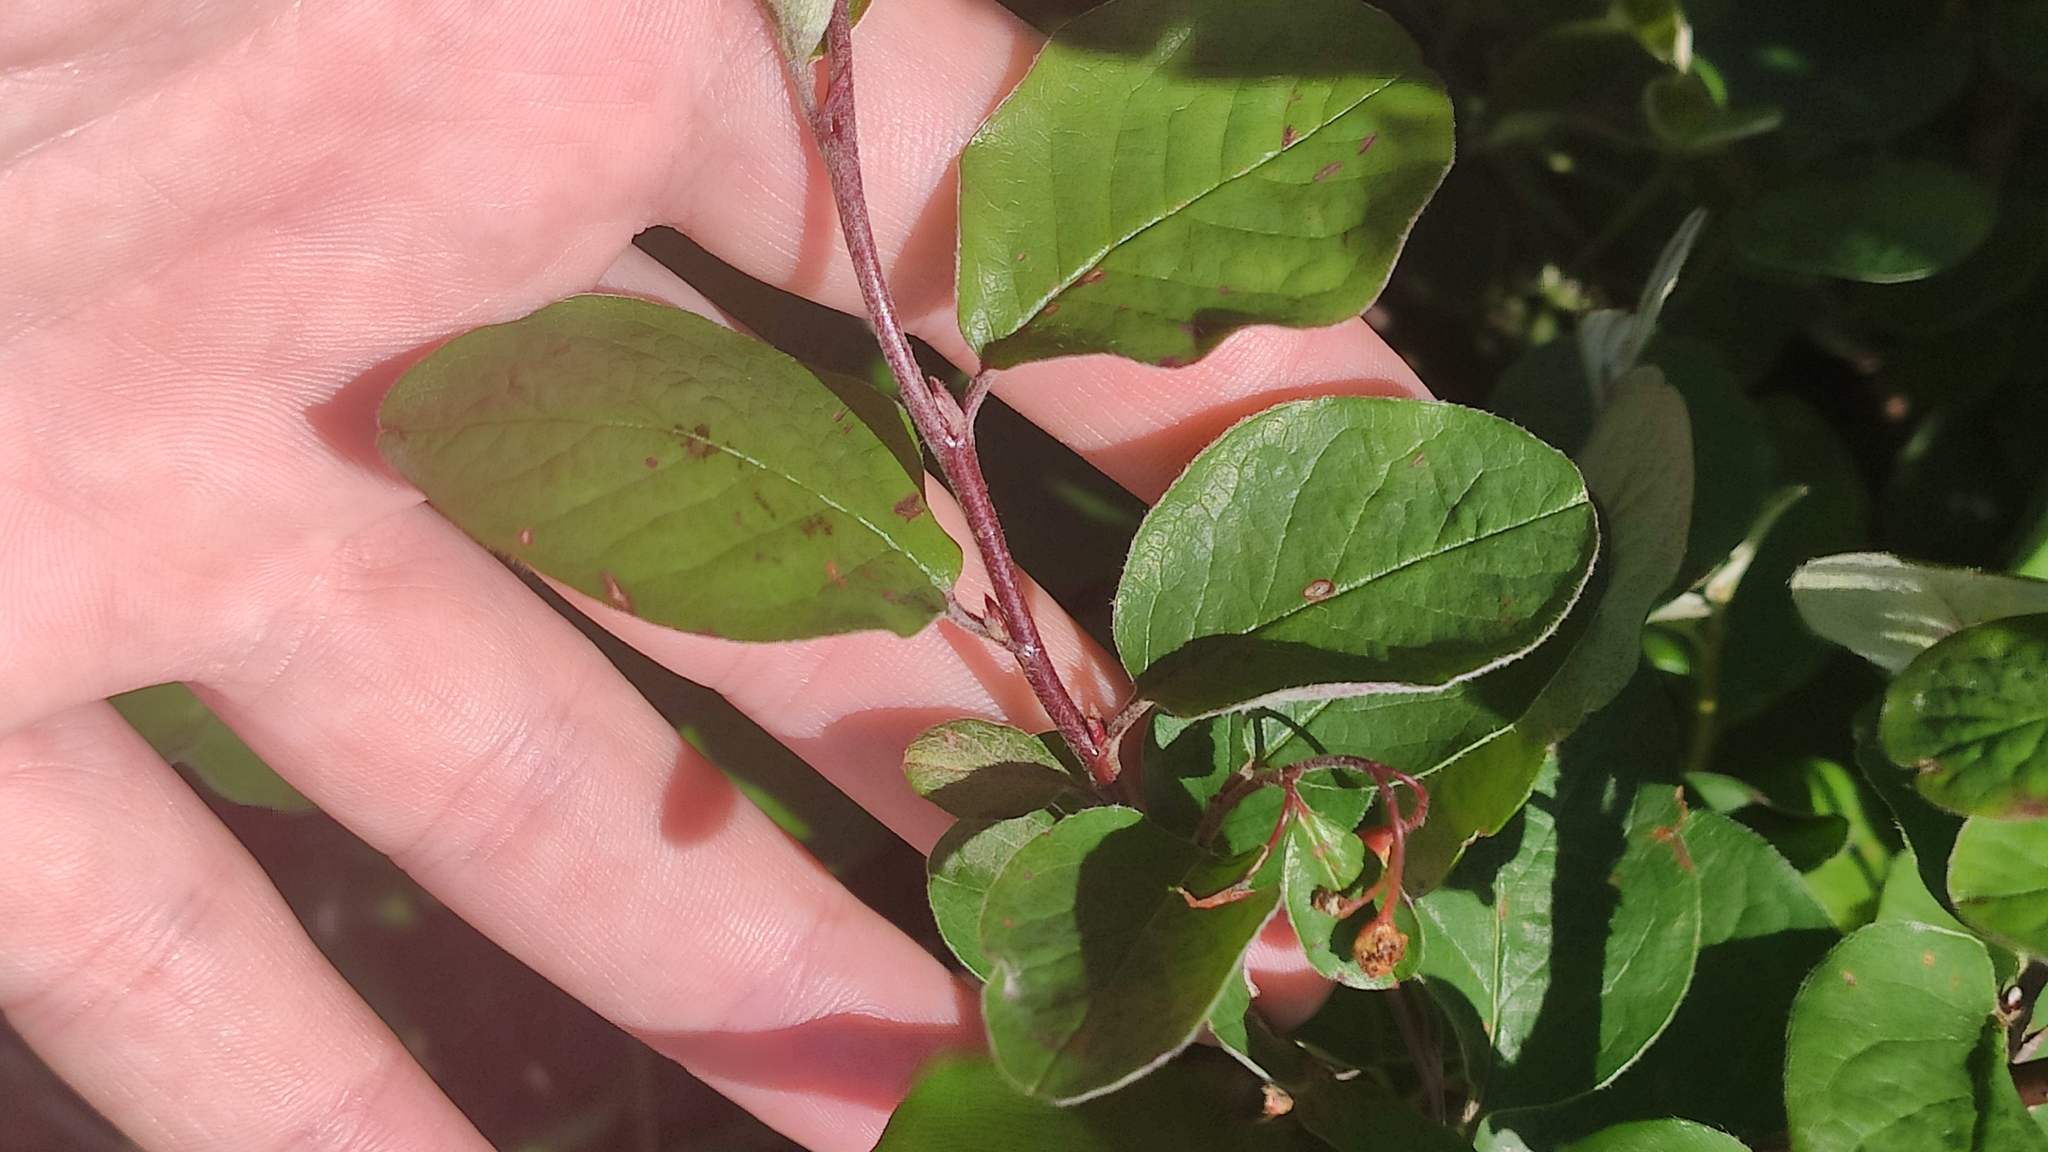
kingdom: Plantae
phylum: Tracheophyta
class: Magnoliopsida
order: Rosales
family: Rosaceae
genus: Cotoneaster
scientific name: Cotoneaster melanocarpus
